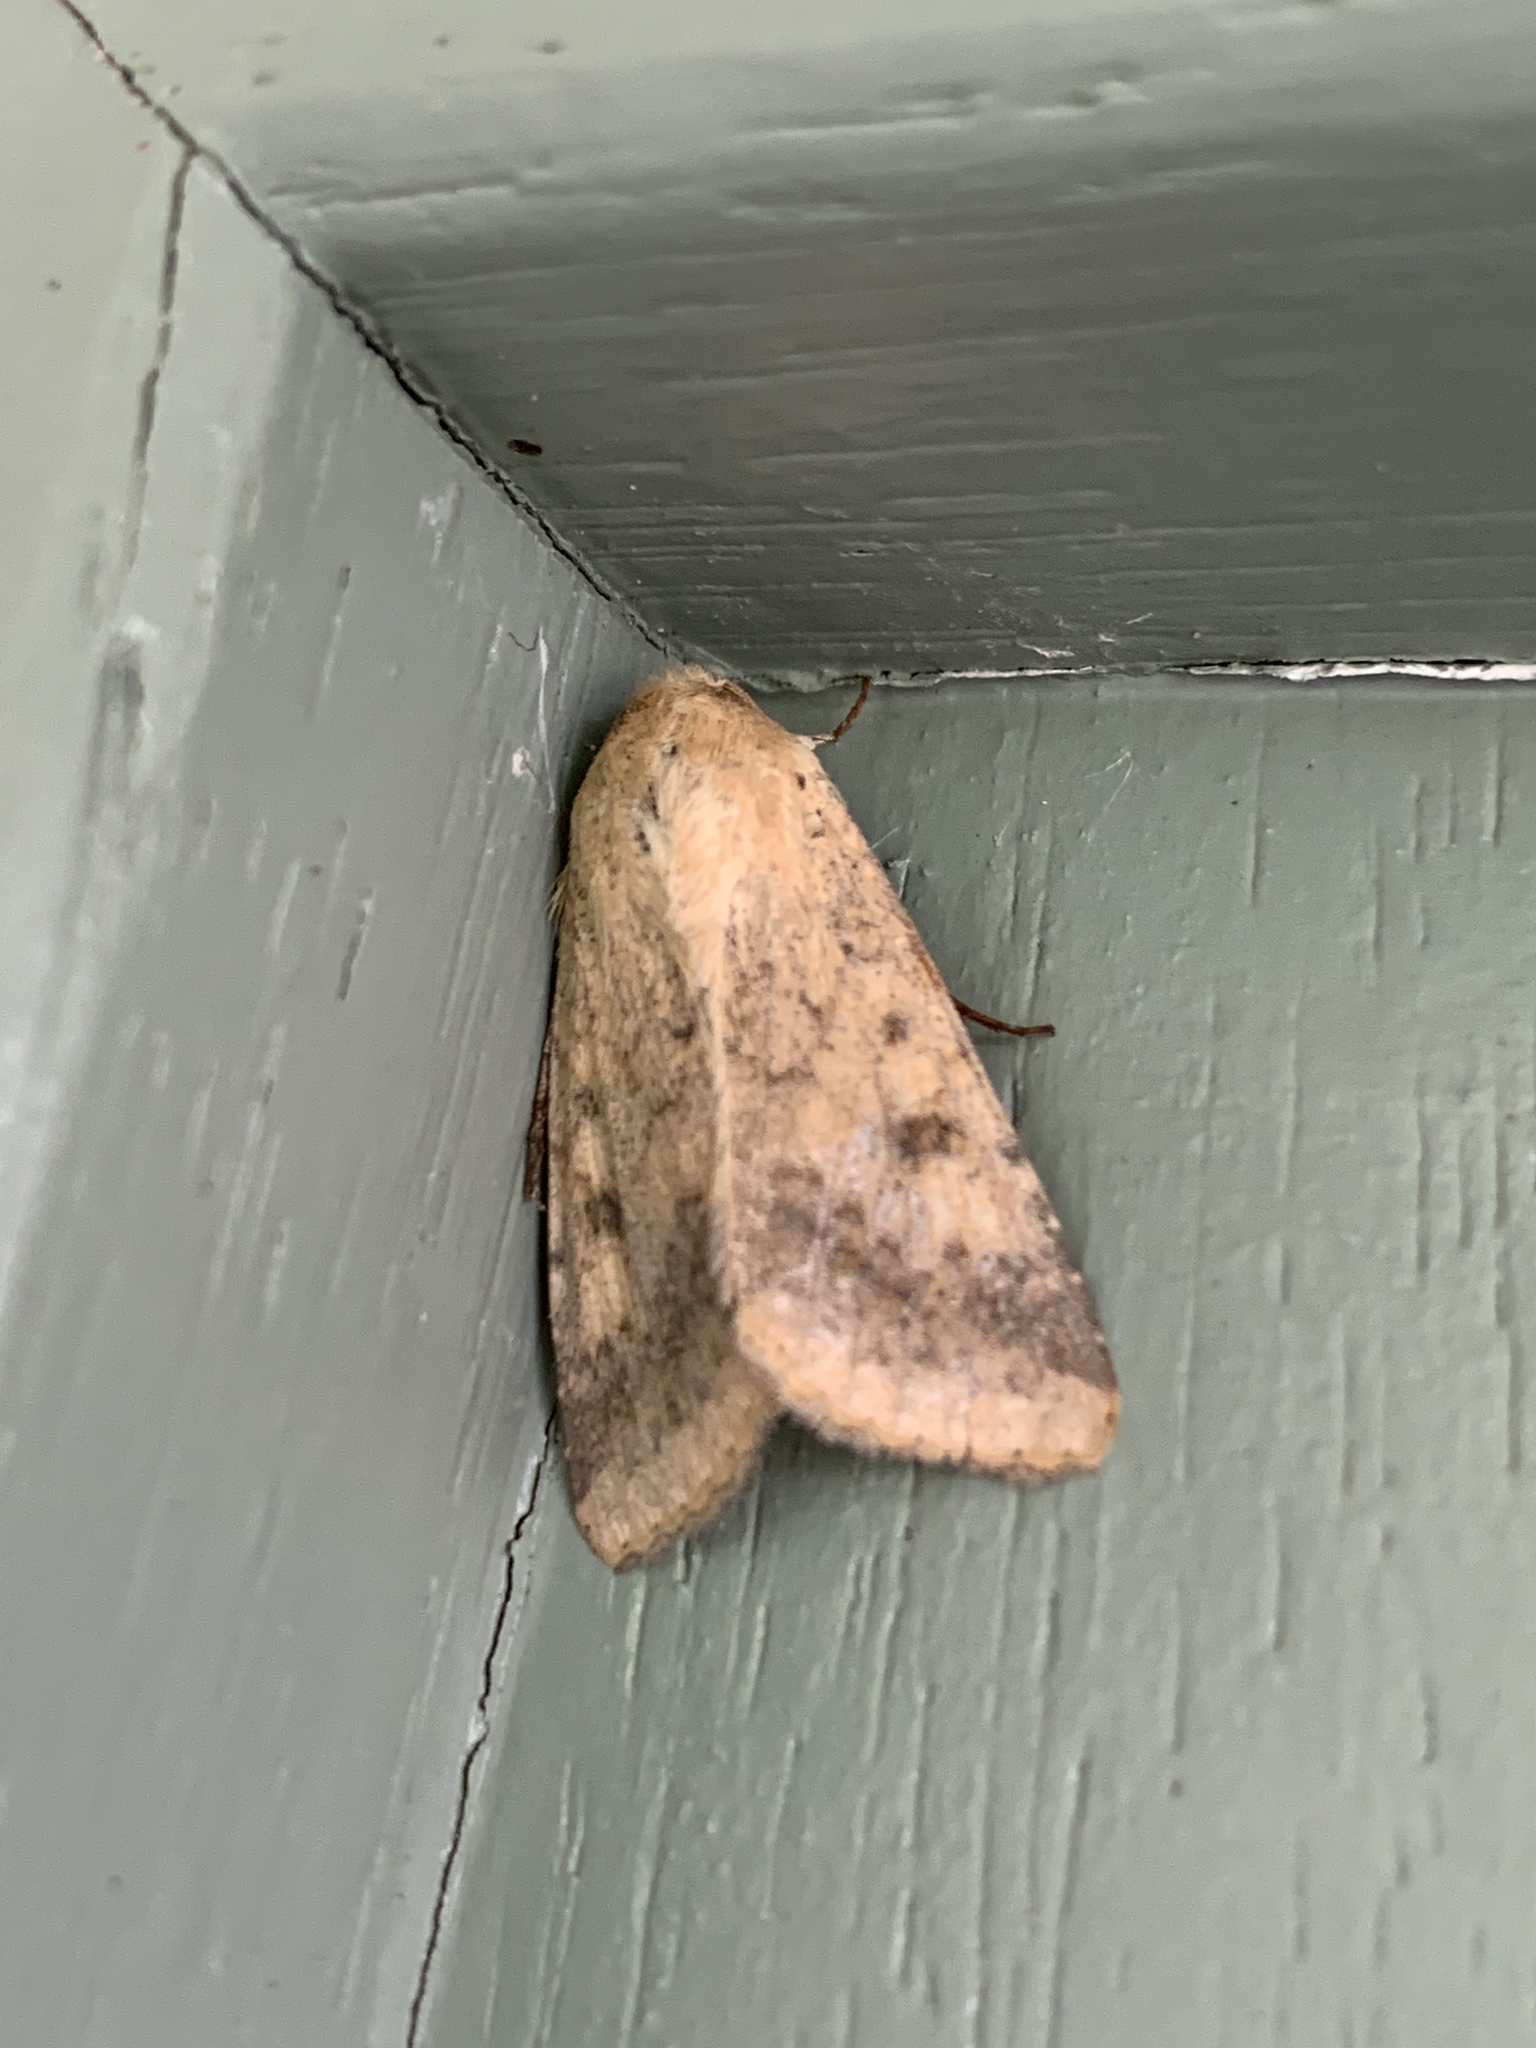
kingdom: Animalia
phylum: Arthropoda
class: Insecta
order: Lepidoptera
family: Noctuidae
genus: Helicoverpa
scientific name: Helicoverpa armigera
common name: Cotton bollworm
